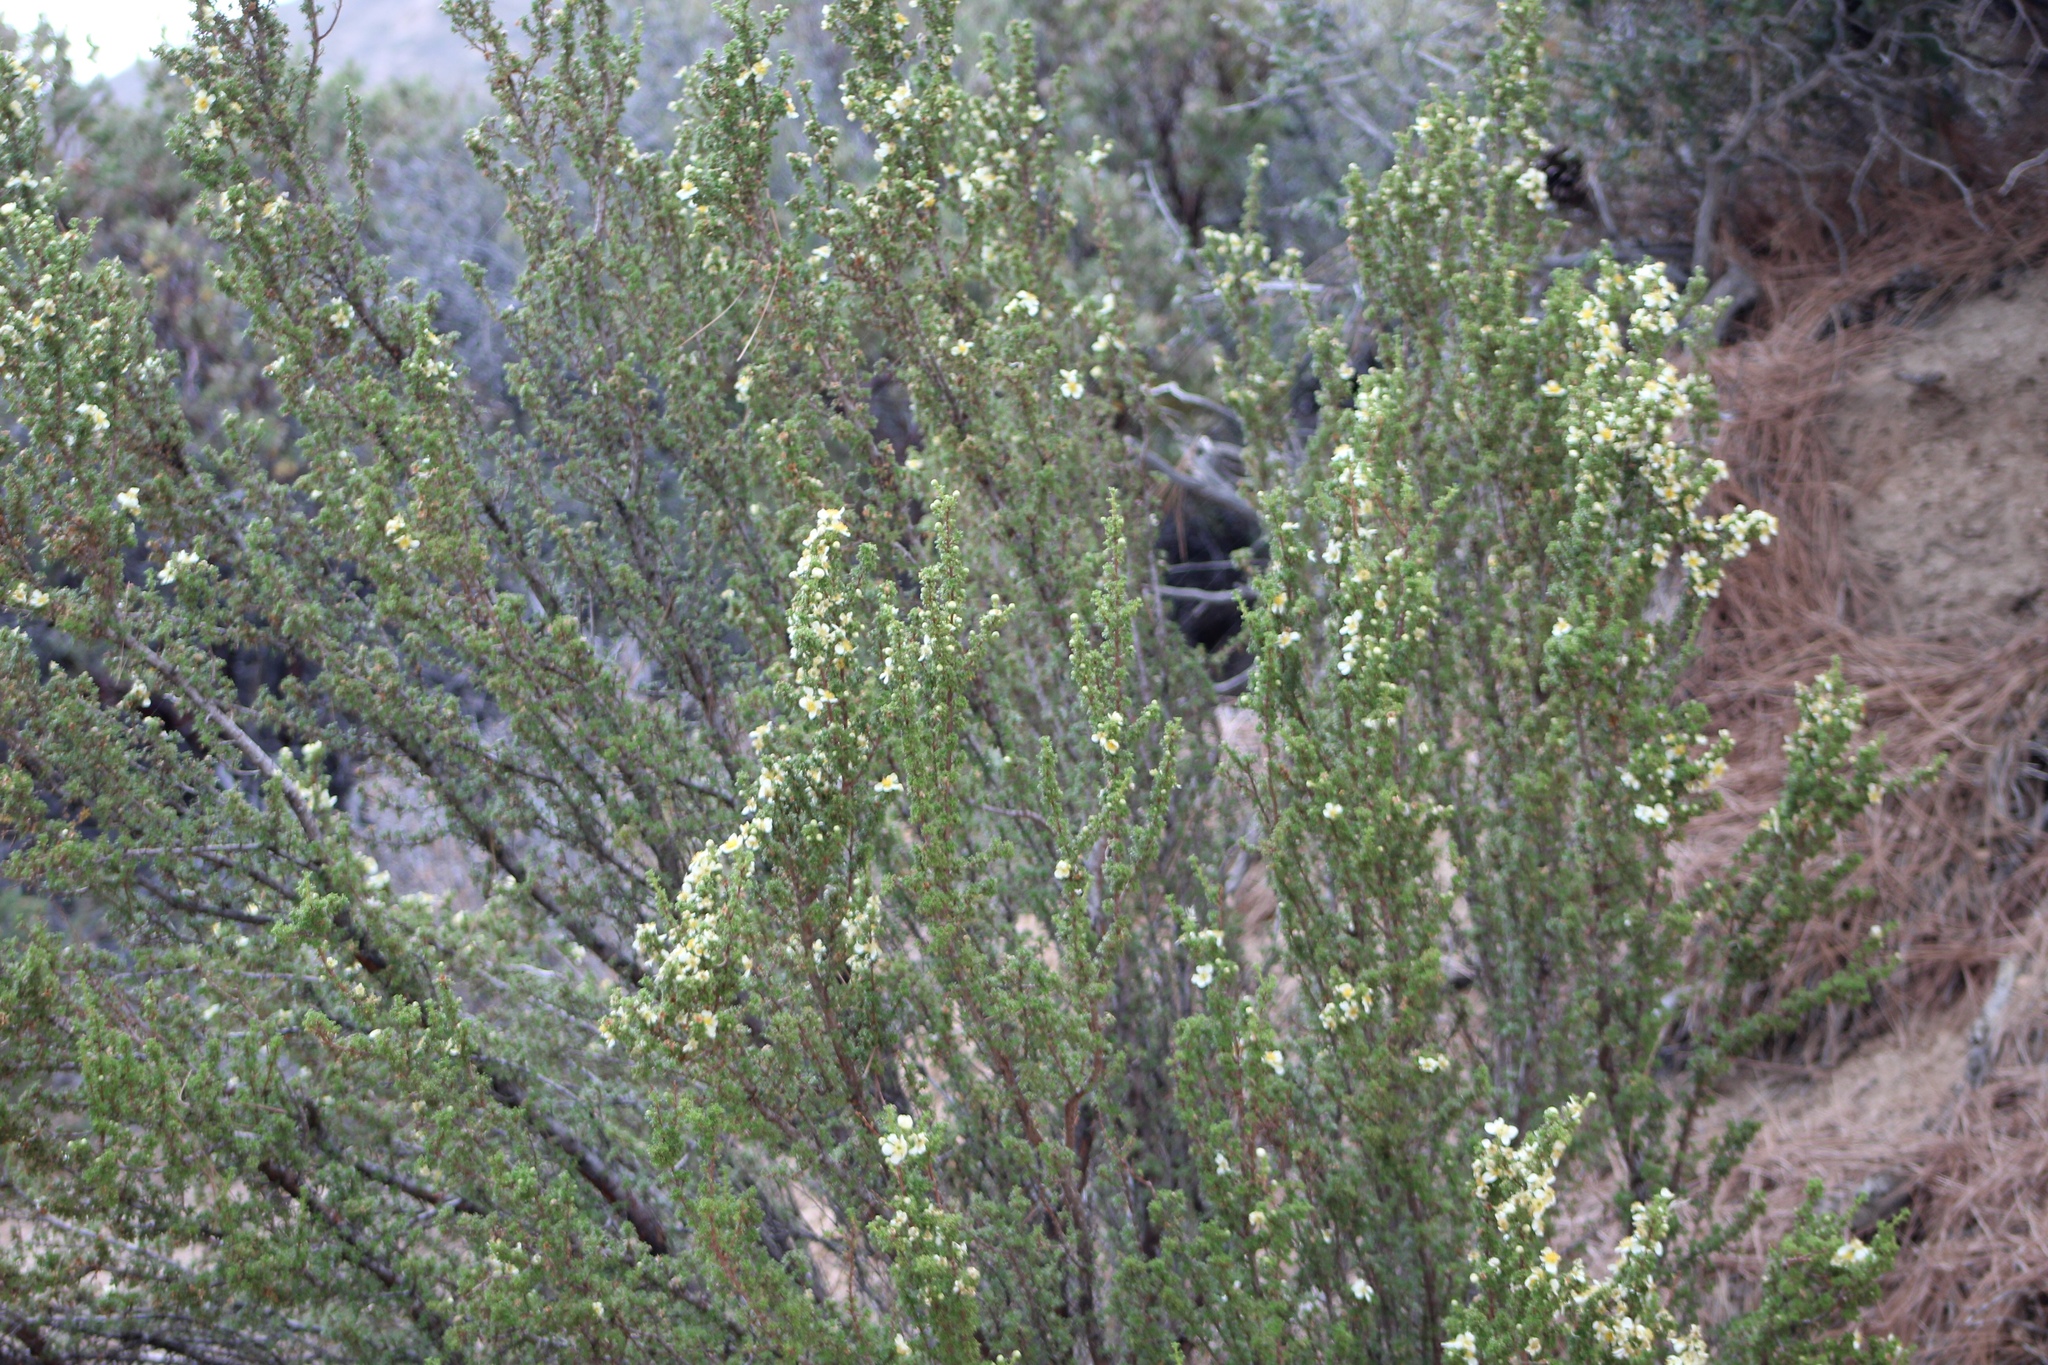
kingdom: Plantae
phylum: Tracheophyta
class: Magnoliopsida
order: Rosales
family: Rosaceae
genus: Purshia
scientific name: Purshia stansburiana
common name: Stansbury's cliffrose
